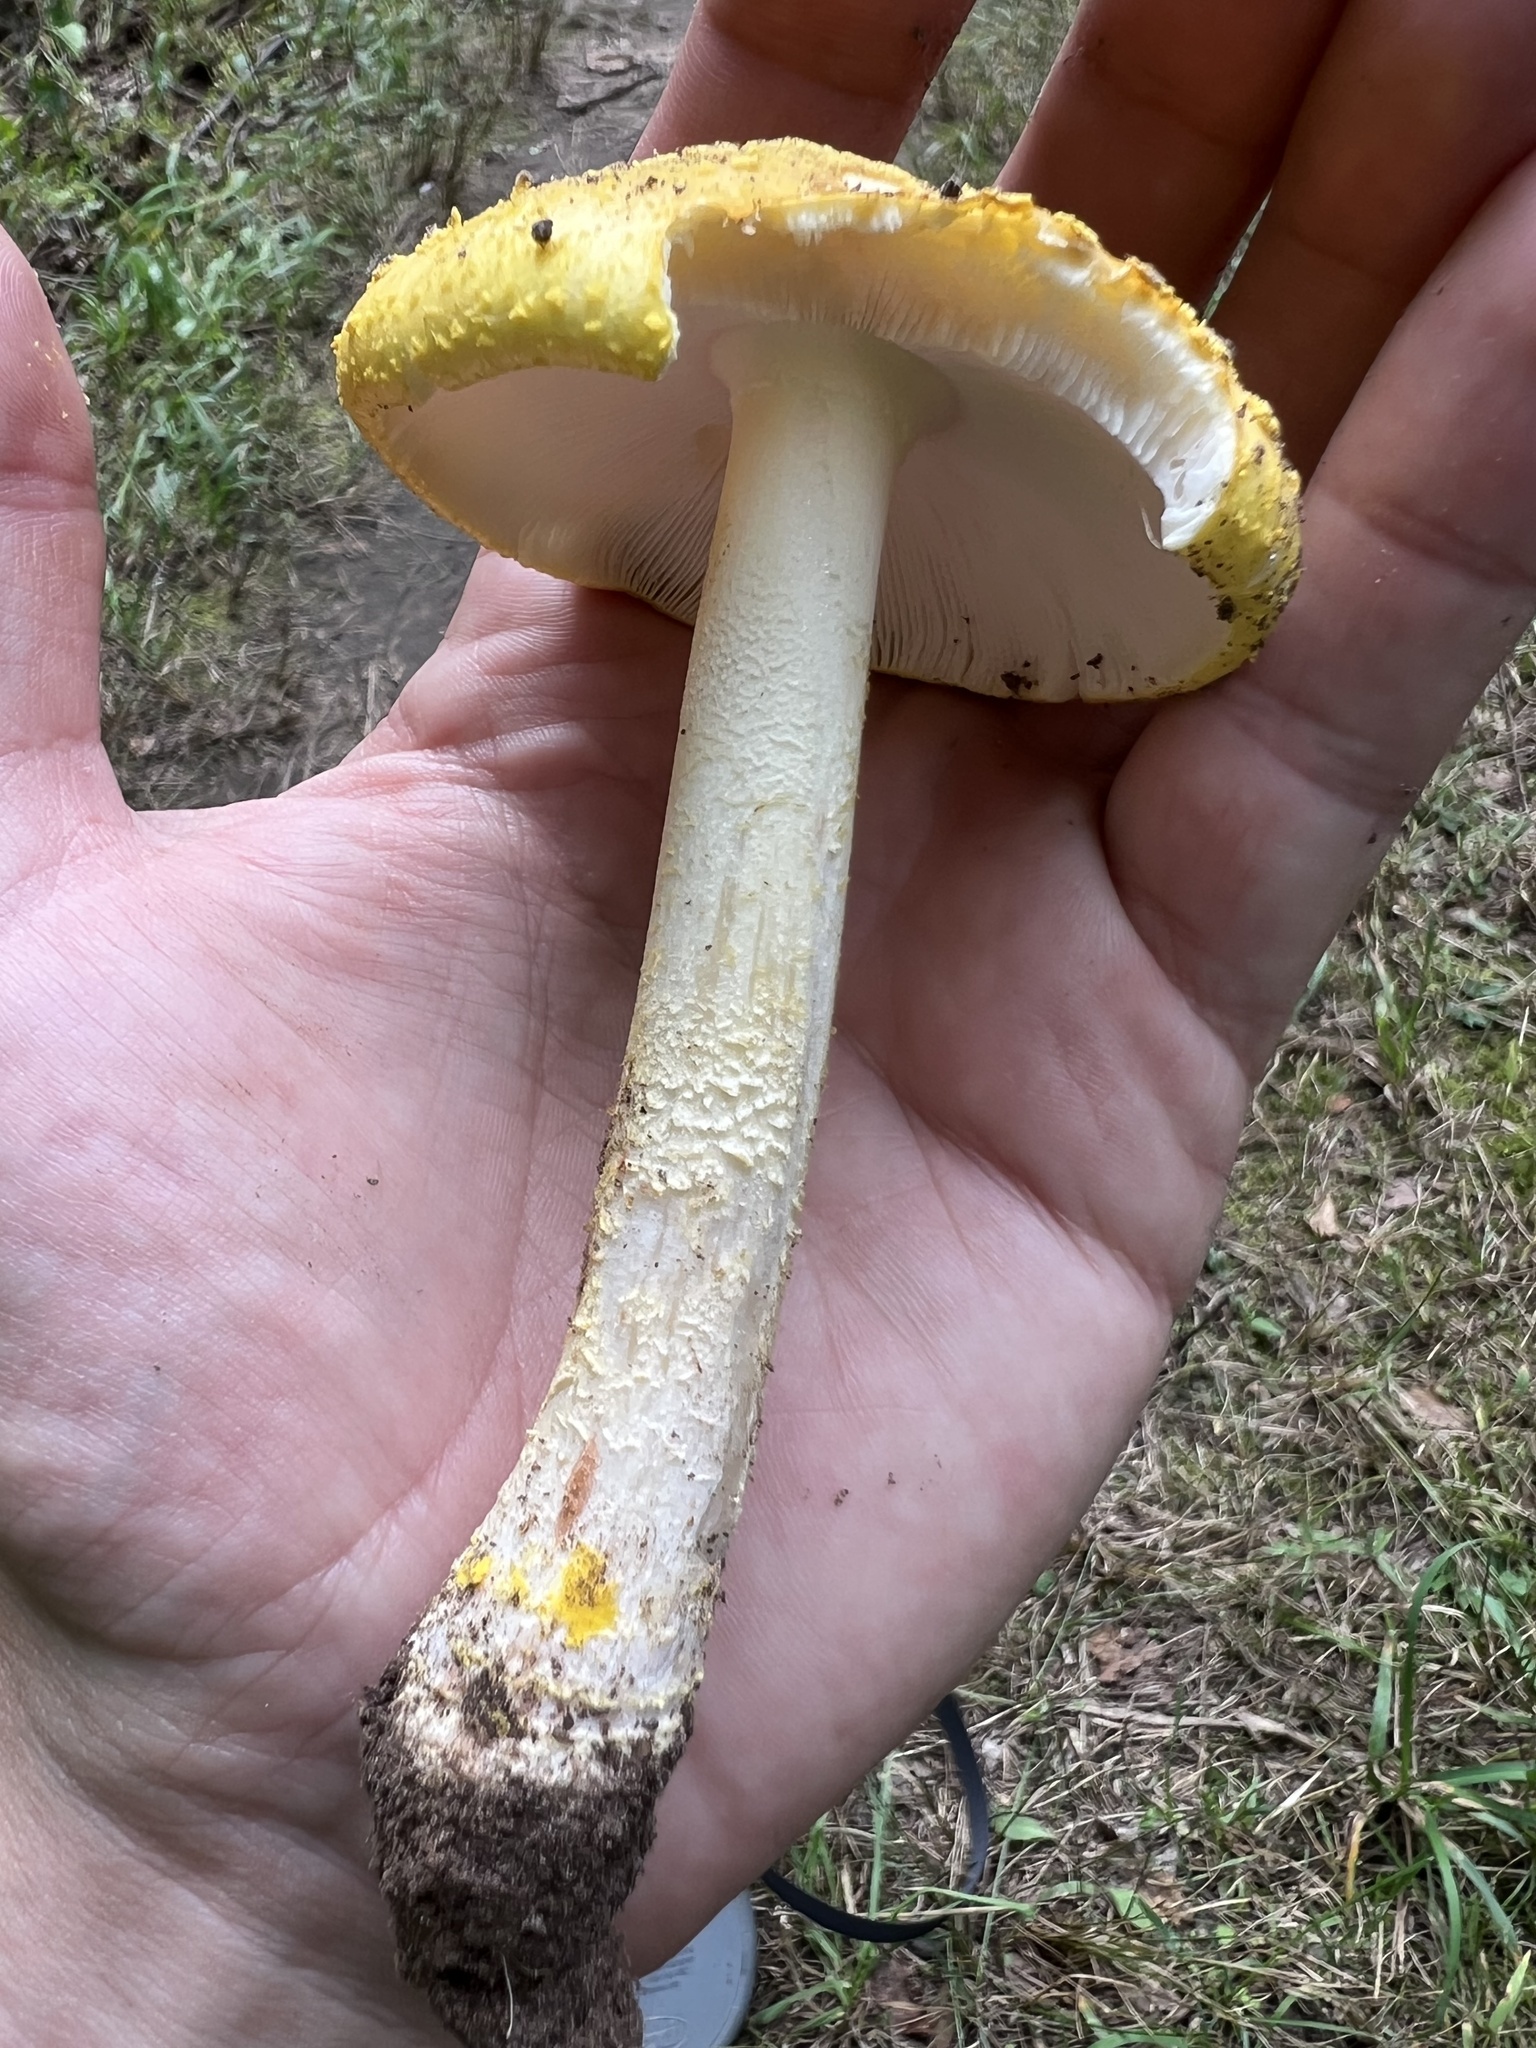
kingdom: Fungi
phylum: Basidiomycota
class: Agaricomycetes
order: Agaricales
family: Amanitaceae
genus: Amanita
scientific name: Amanita flavorubens
